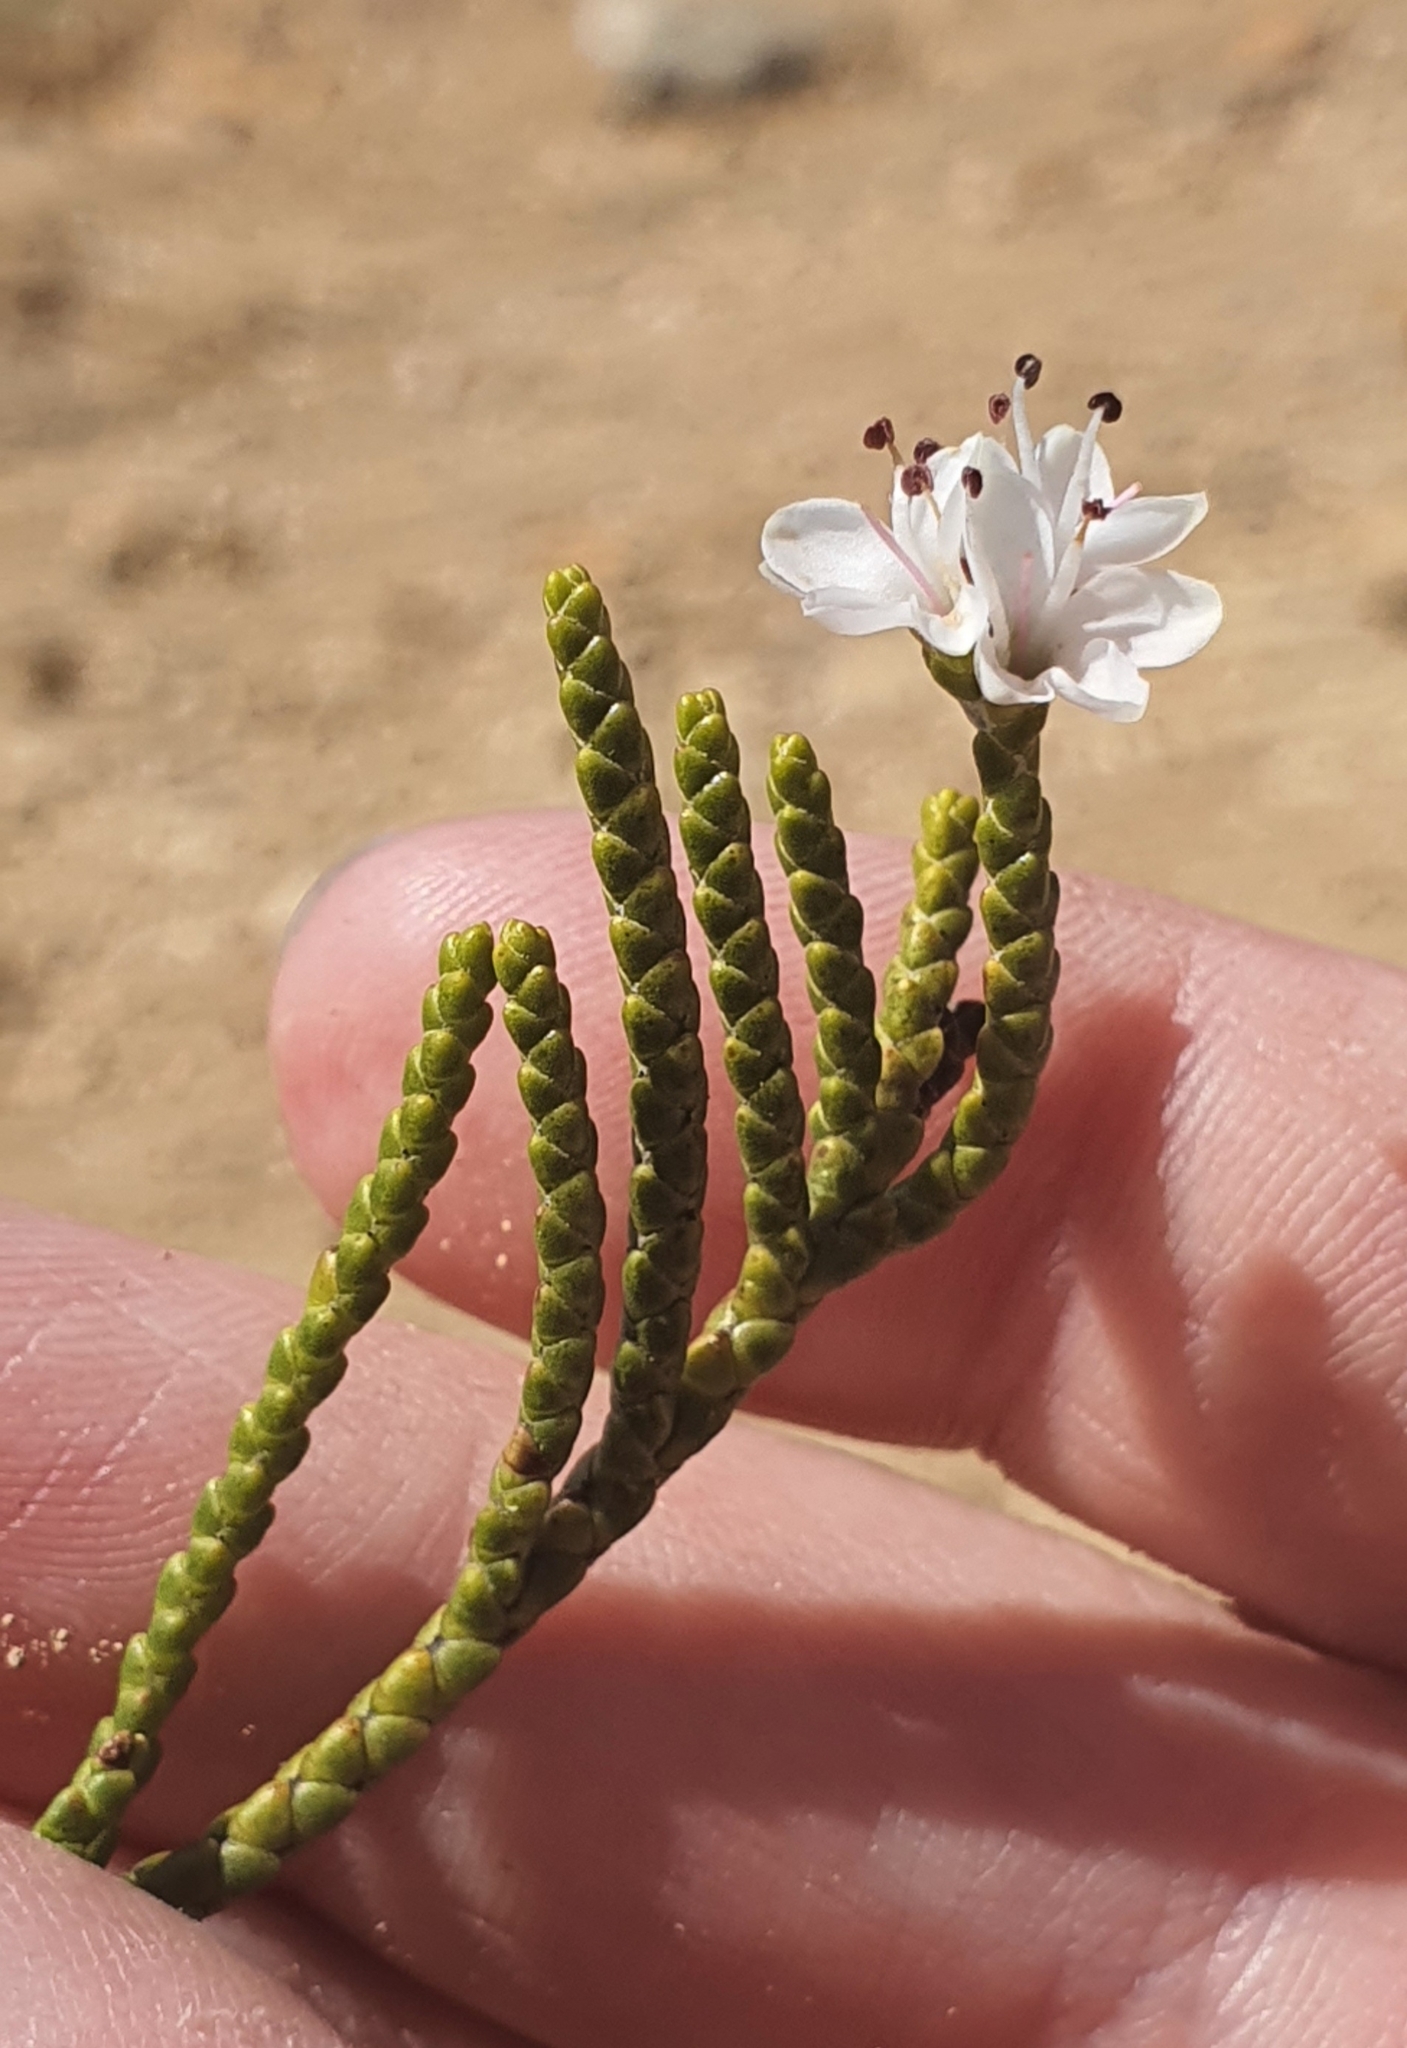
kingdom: Plantae
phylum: Tracheophyta
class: Magnoliopsida
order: Lamiales
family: Plantaginaceae
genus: Veronica
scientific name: Veronica hectorii
